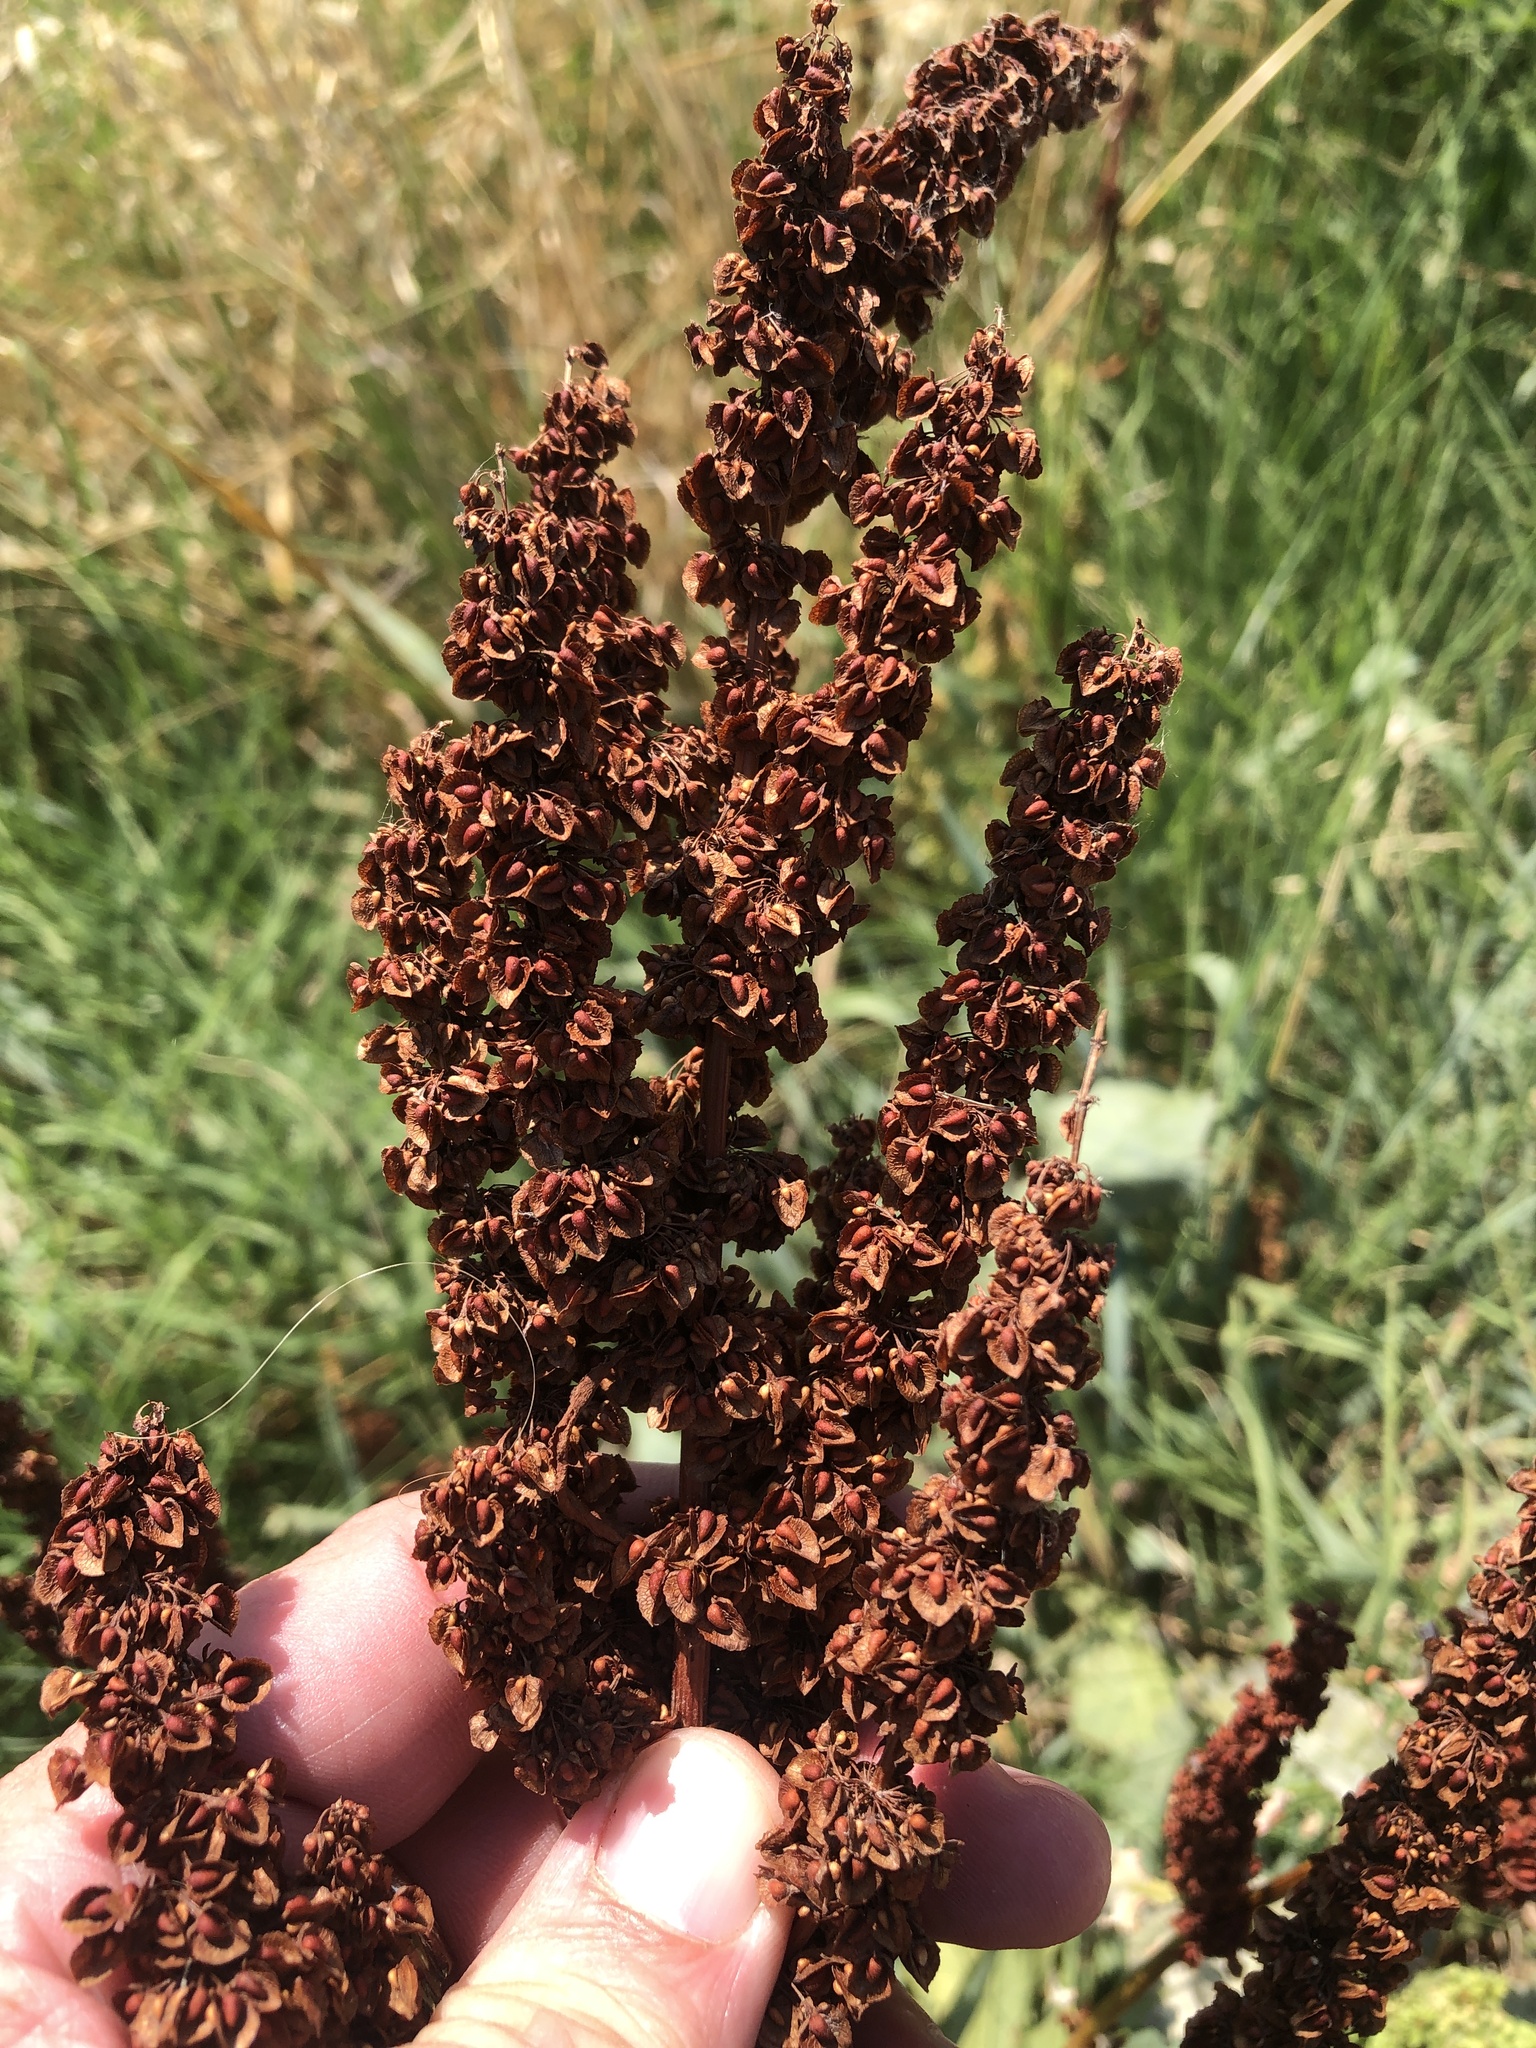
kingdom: Plantae
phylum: Tracheophyta
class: Magnoliopsida
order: Caryophyllales
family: Polygonaceae
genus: Rumex
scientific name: Rumex crispus
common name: Curled dock
